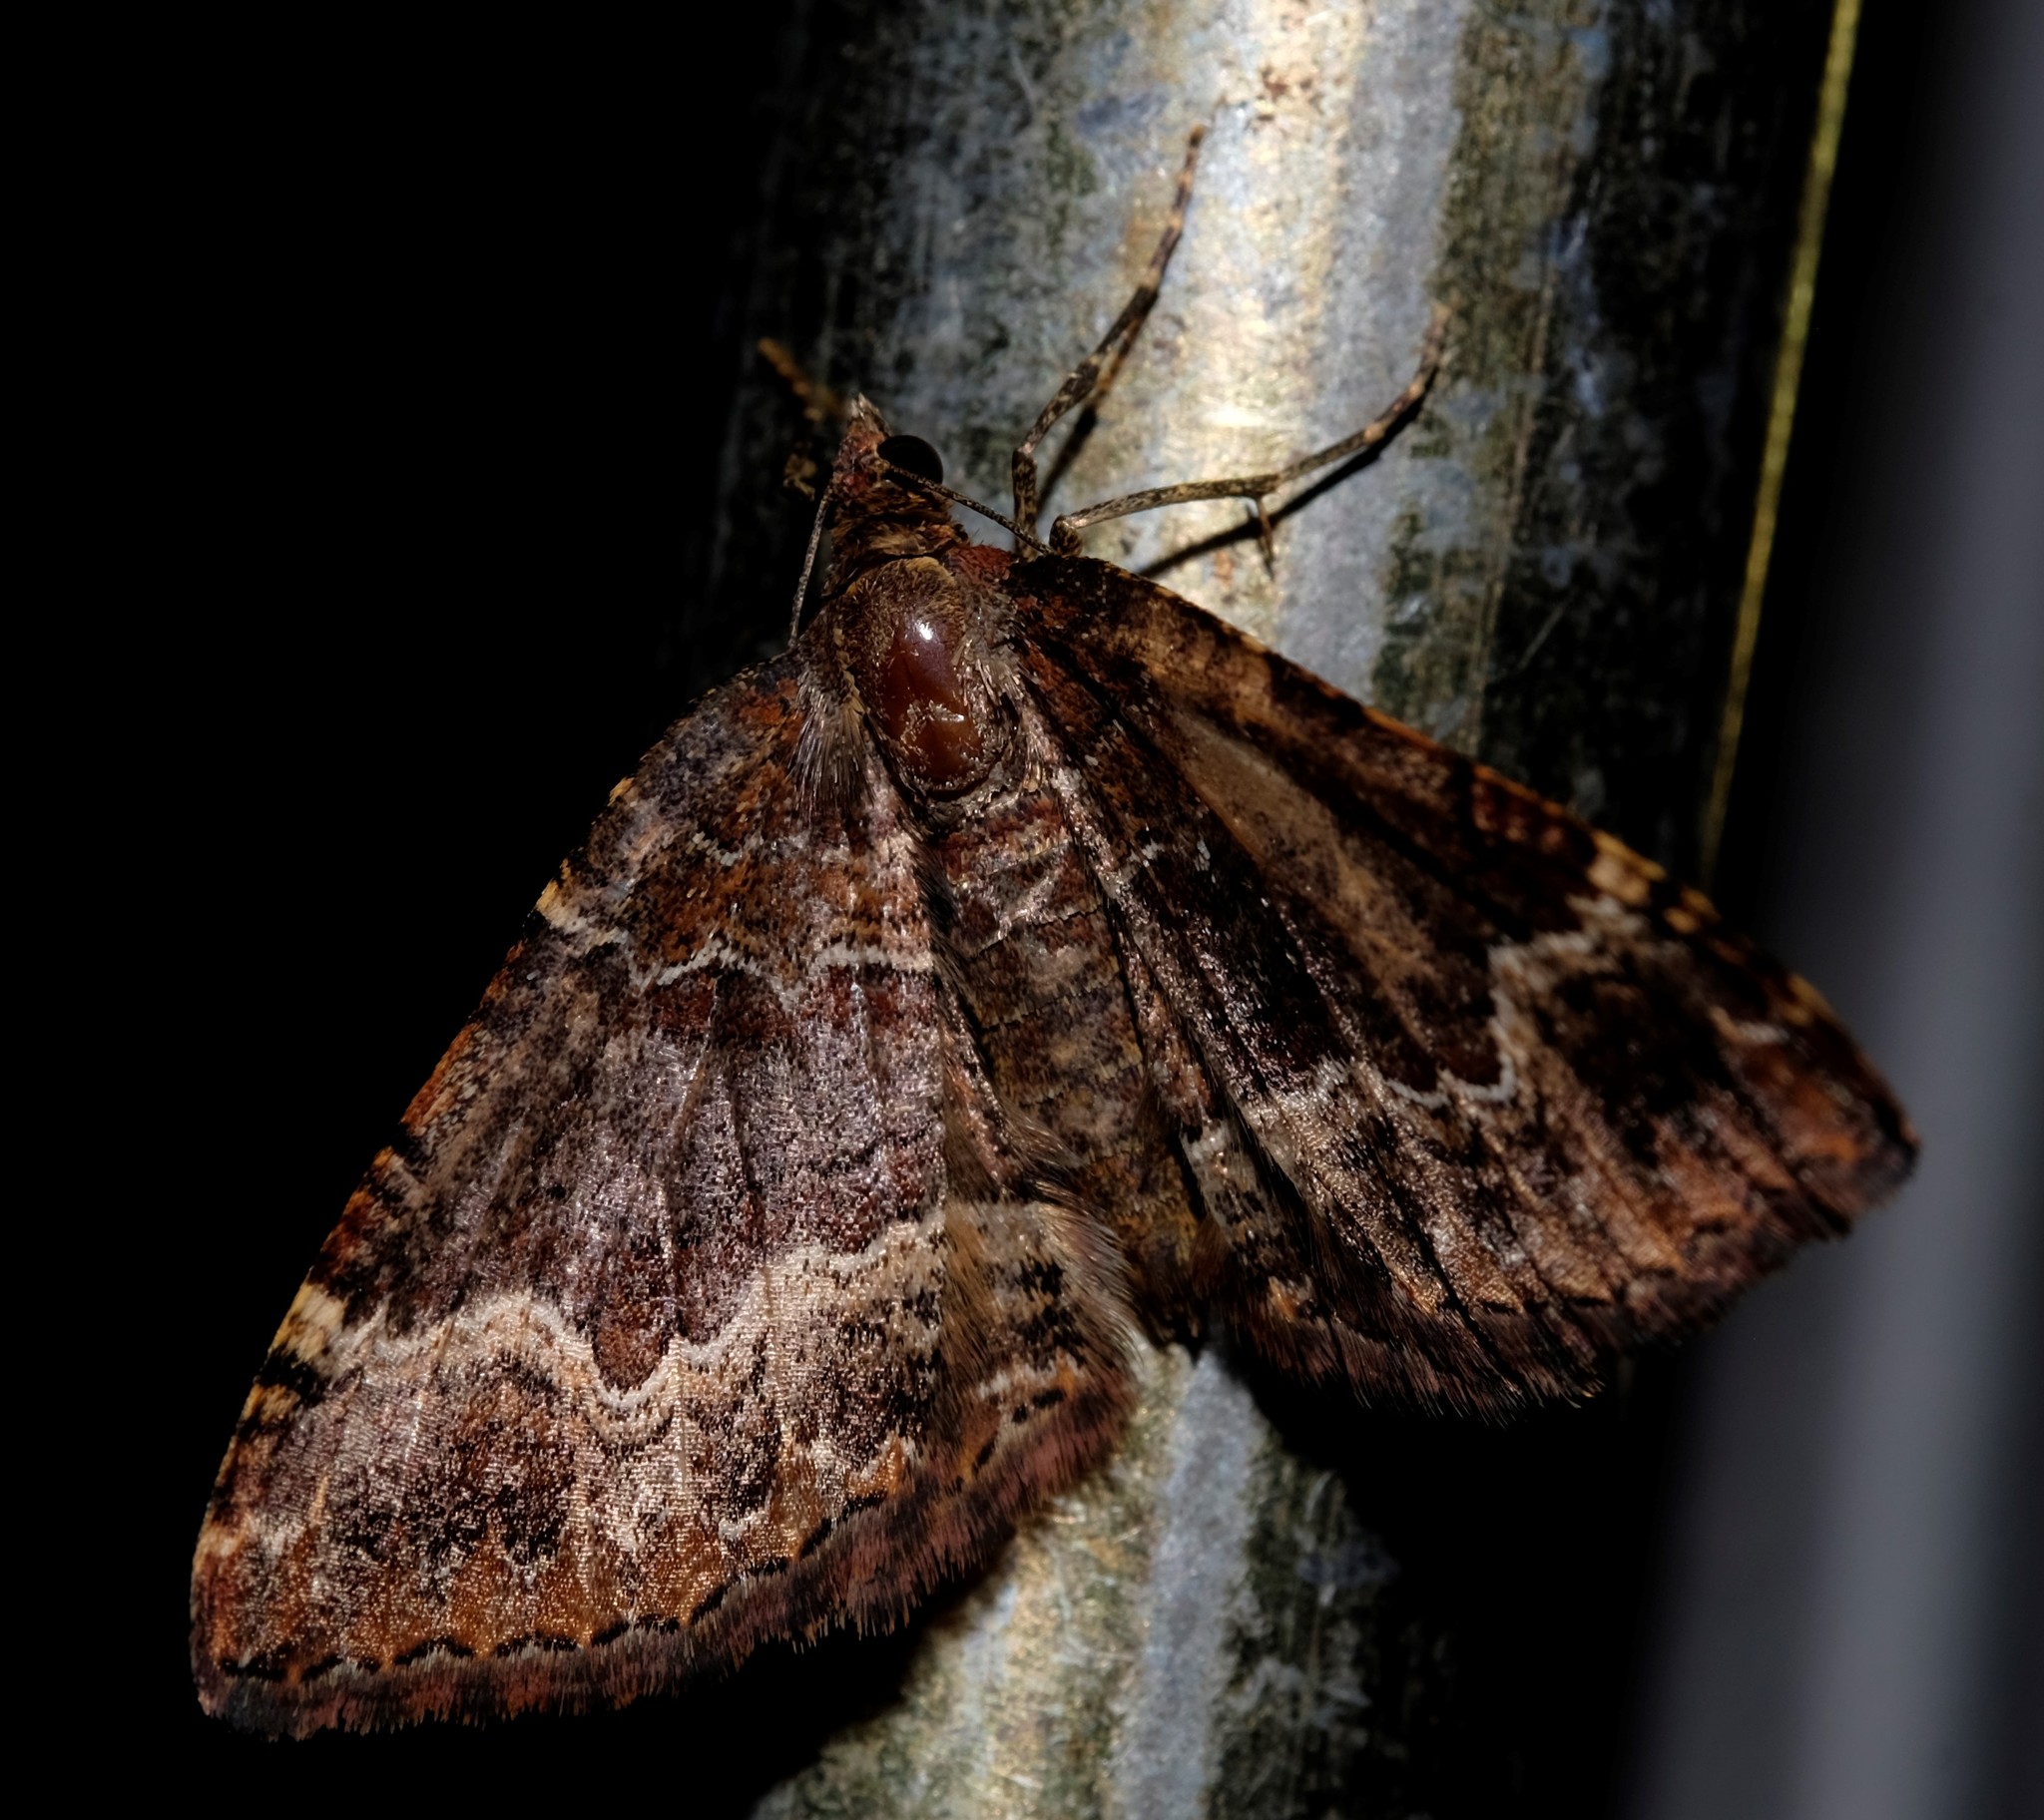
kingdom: Animalia
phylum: Arthropoda
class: Insecta
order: Lepidoptera
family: Geometridae
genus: Chrysolarentia
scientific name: Chrysolarentia euphileta
